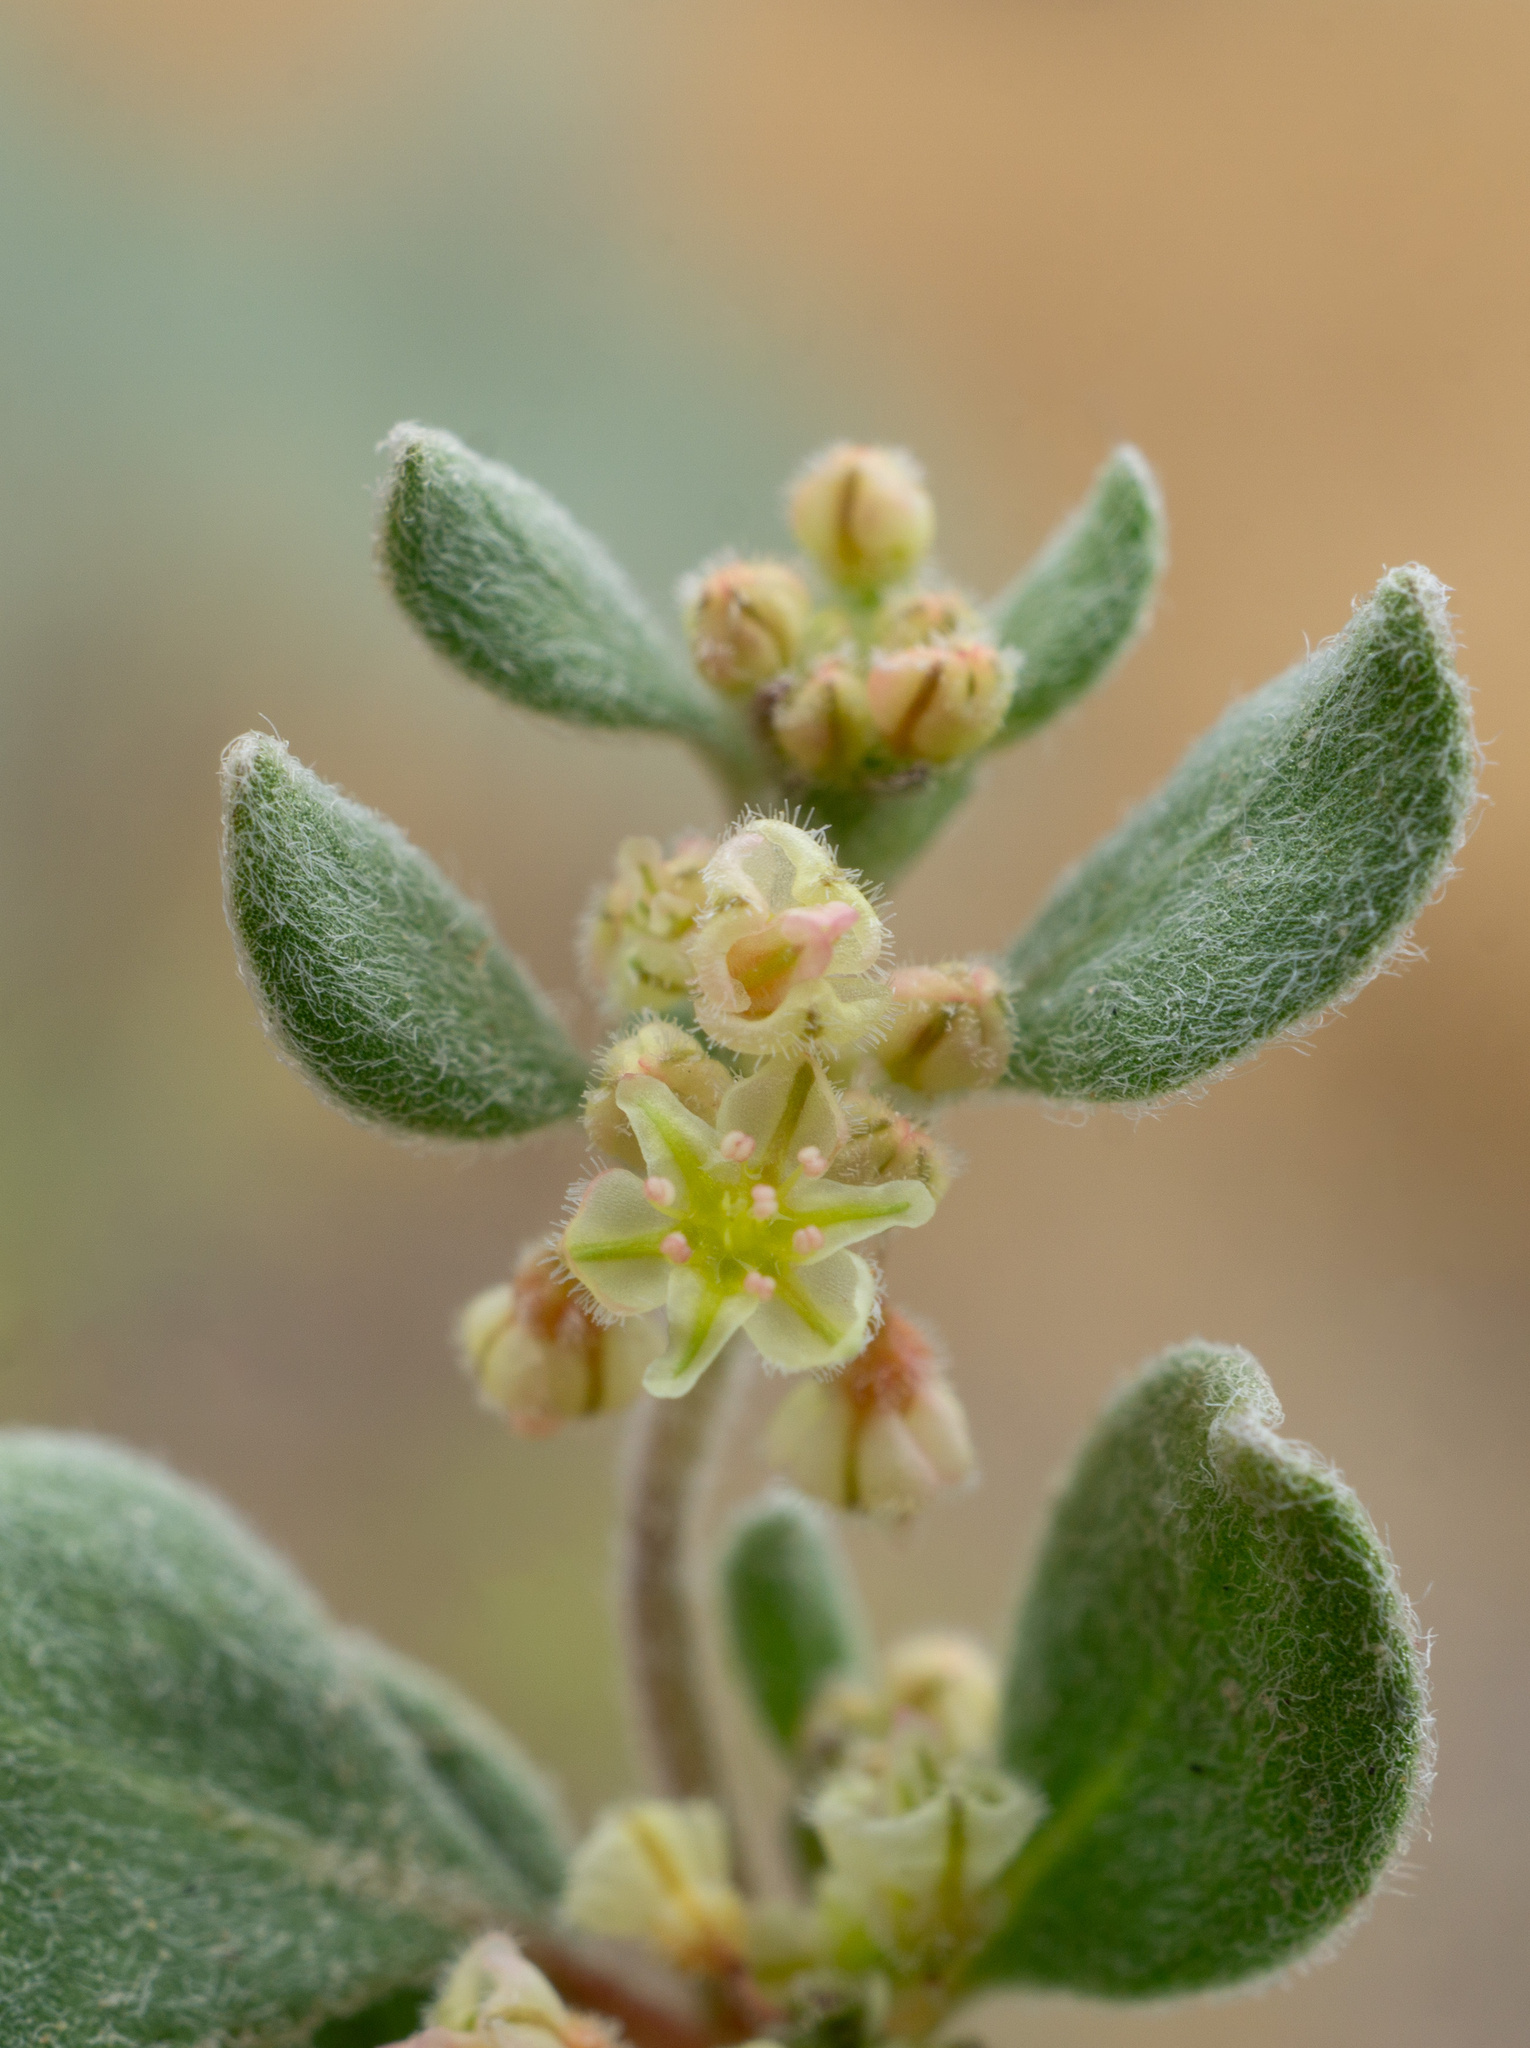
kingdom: Plantae
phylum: Tracheophyta
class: Magnoliopsida
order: Caryophyllales
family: Polygonaceae
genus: Eriogonum
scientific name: Eriogonum darrovii
